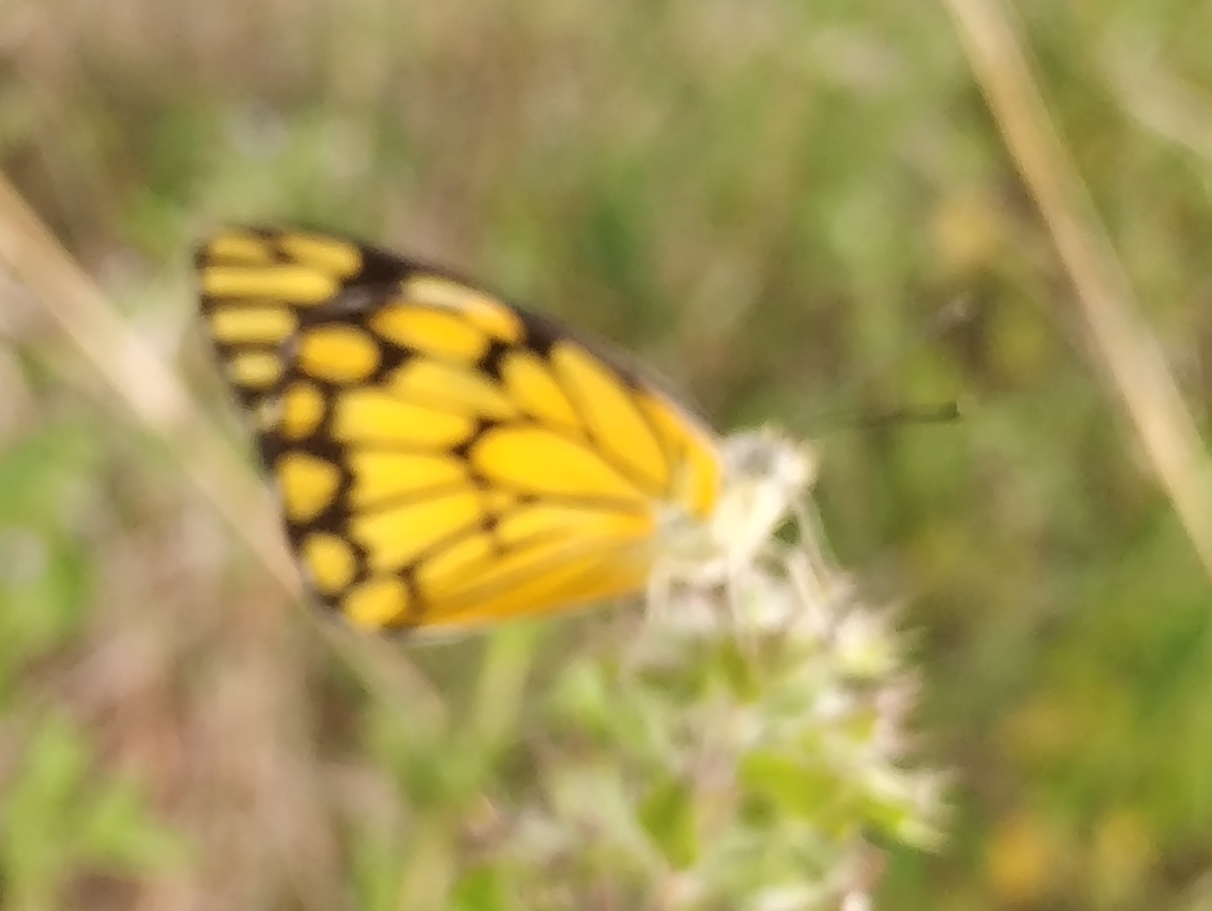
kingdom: Animalia
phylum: Arthropoda
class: Insecta
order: Lepidoptera
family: Pieridae
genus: Belenois
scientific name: Belenois aurota
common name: Brown-veined white
